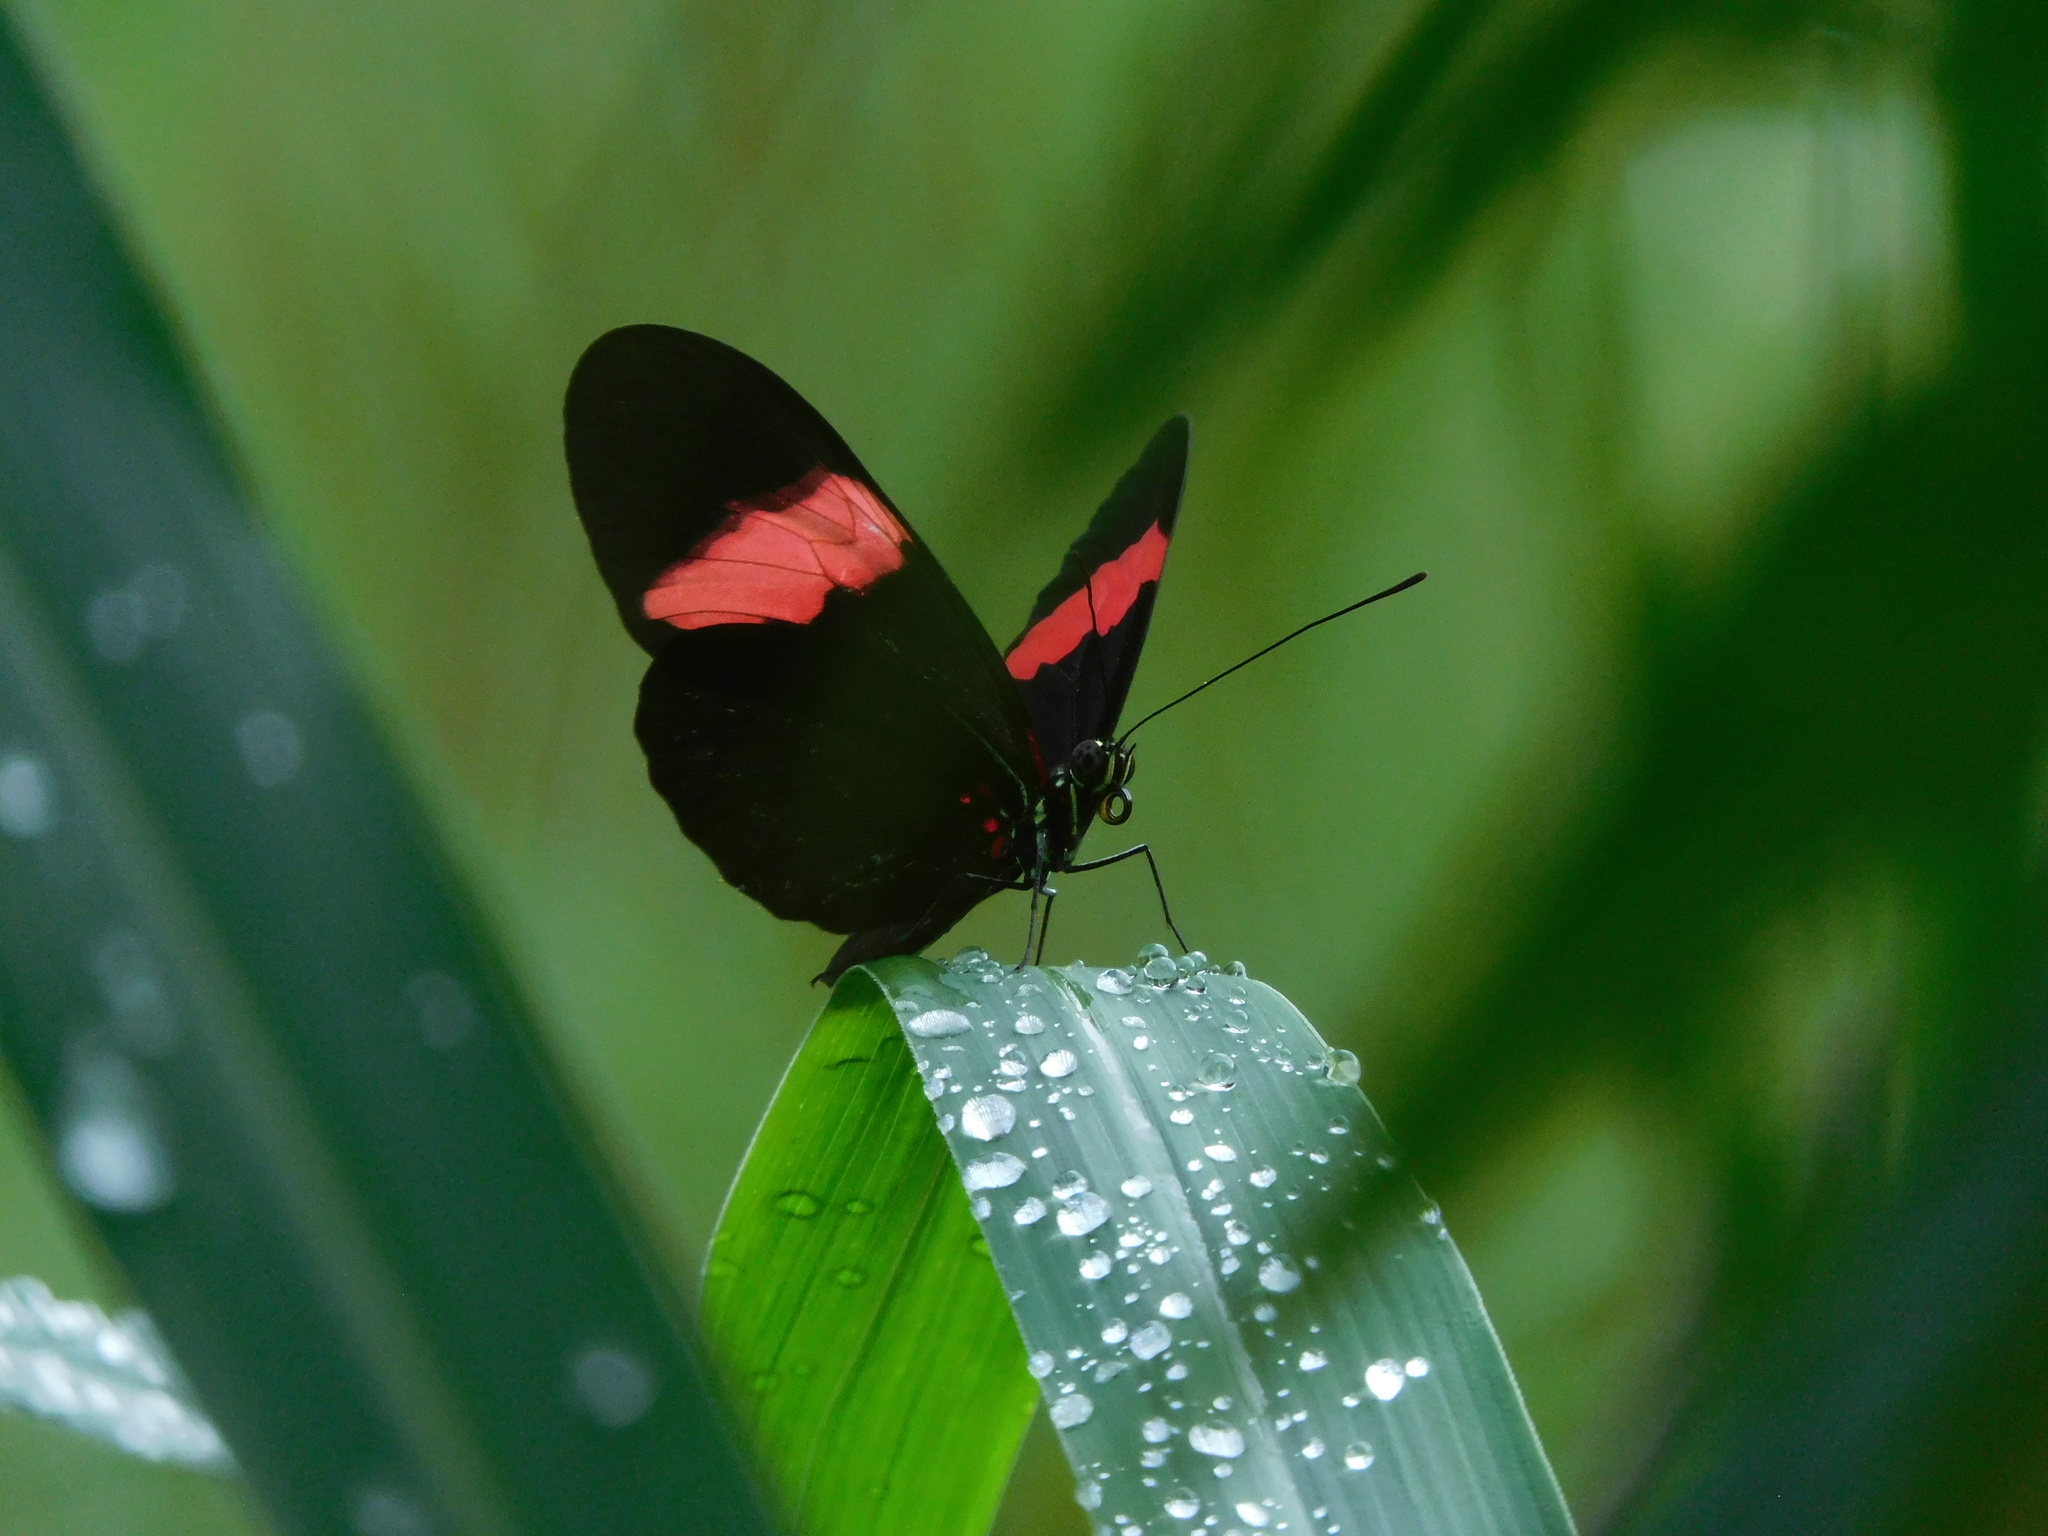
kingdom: Animalia
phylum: Arthropoda
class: Insecta
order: Lepidoptera
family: Nymphalidae
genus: Heliconius
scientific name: Heliconius erato
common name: Common patch longwing
